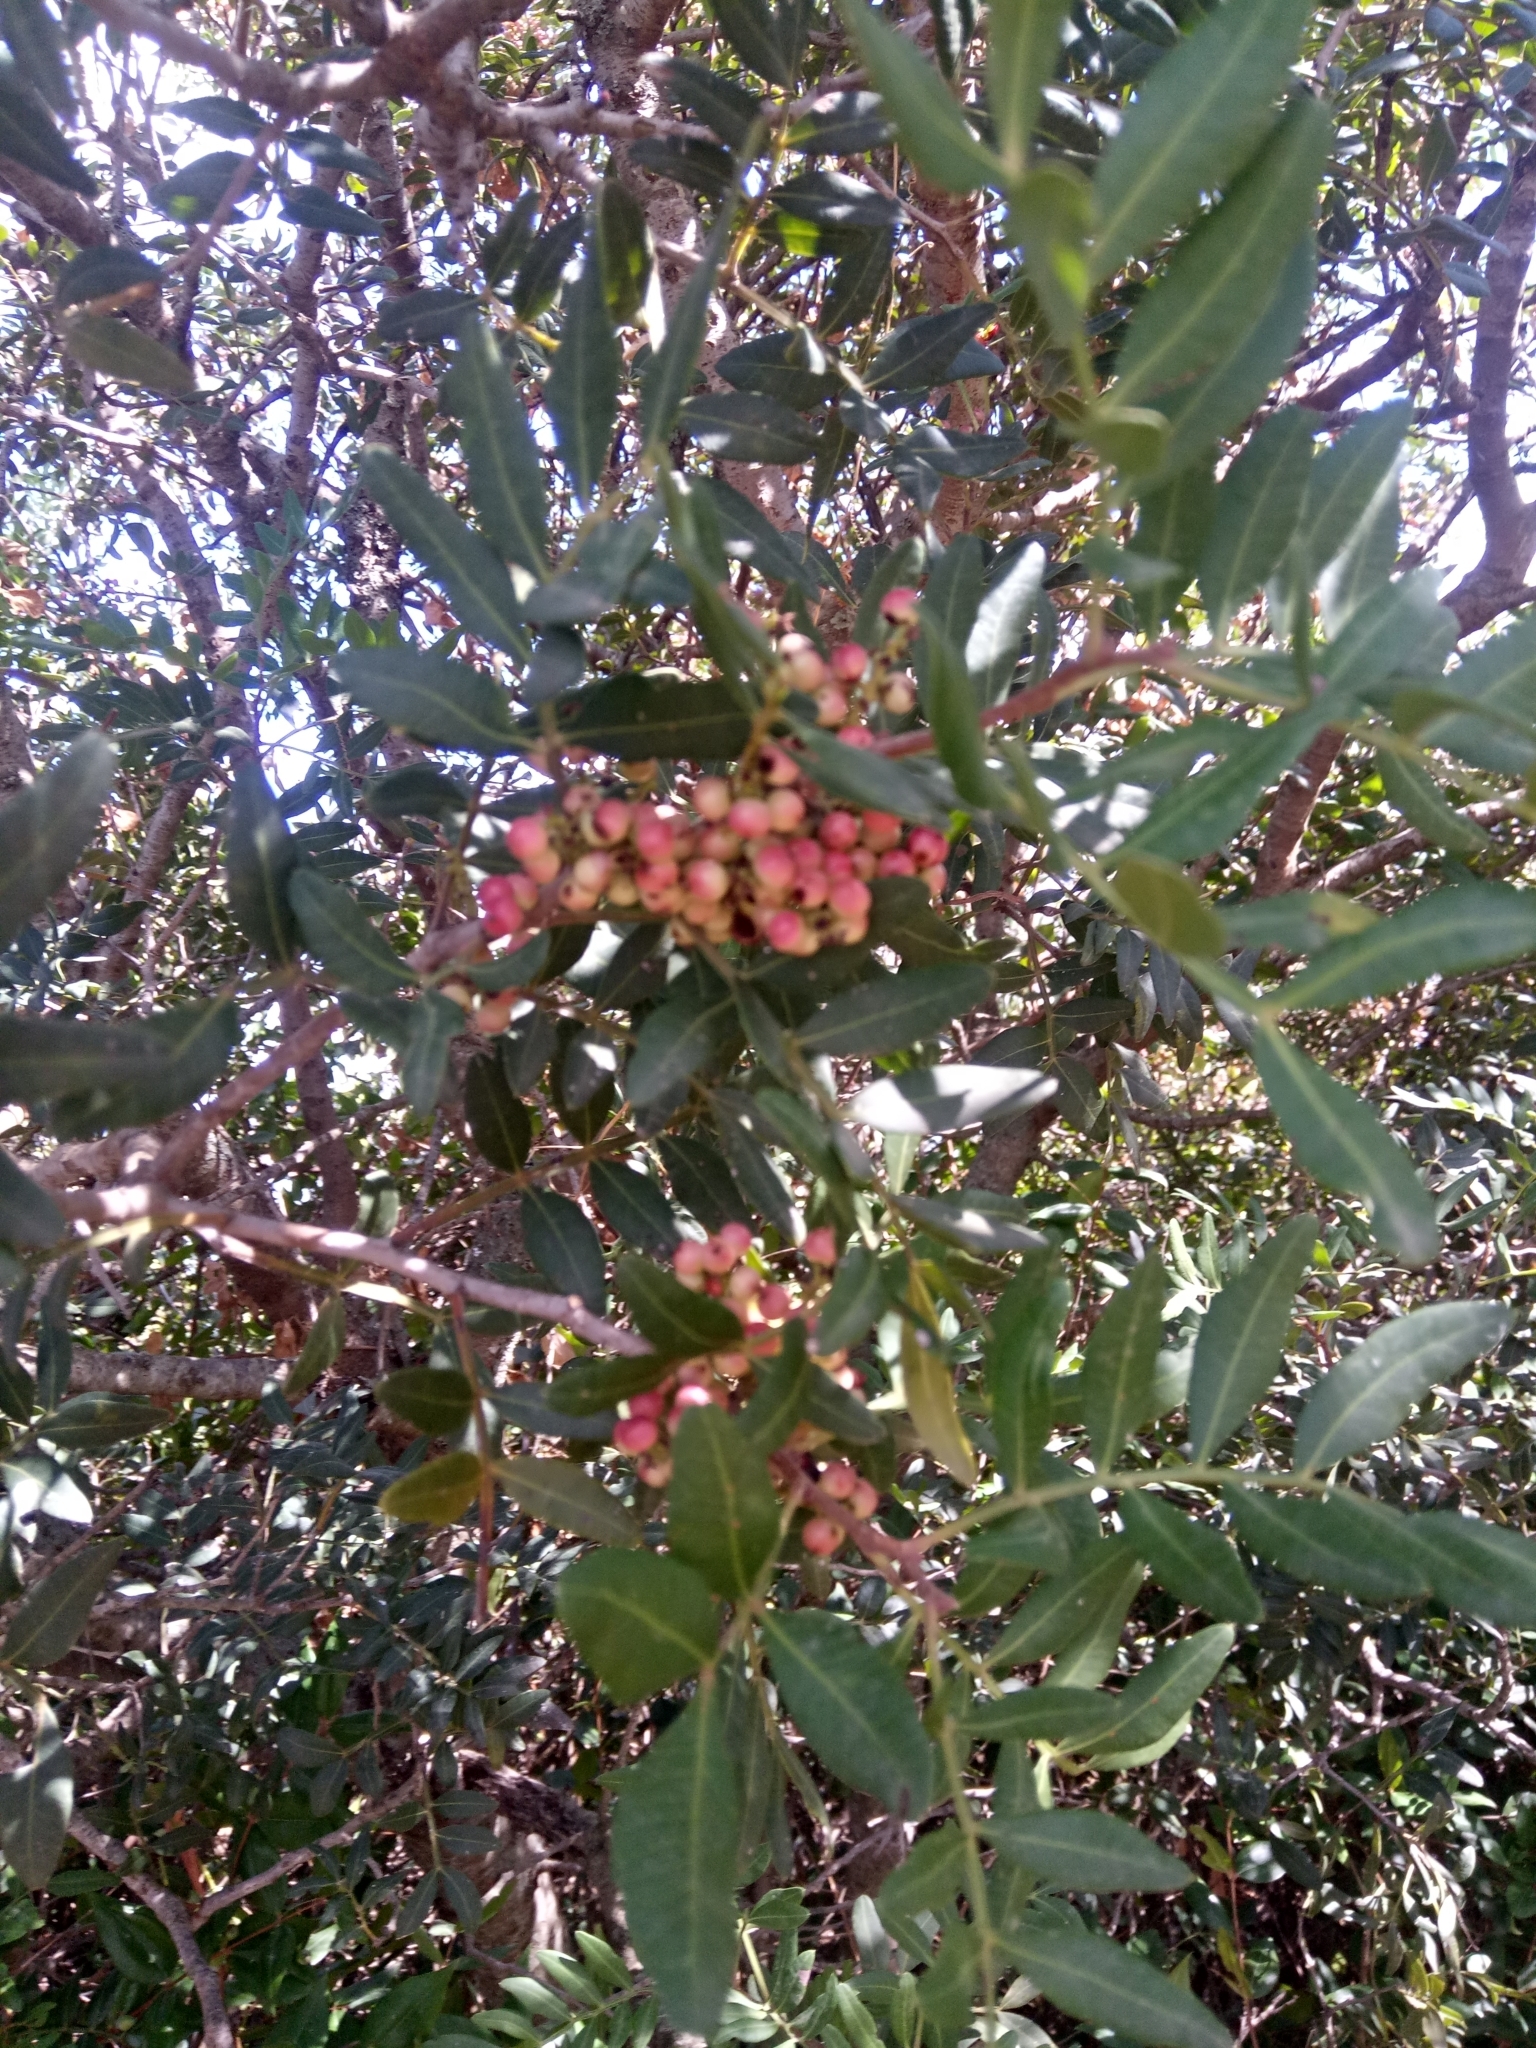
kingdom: Plantae
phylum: Tracheophyta
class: Magnoliopsida
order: Sapindales
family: Anacardiaceae
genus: Pistacia
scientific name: Pistacia lentiscus
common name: Lentisk
